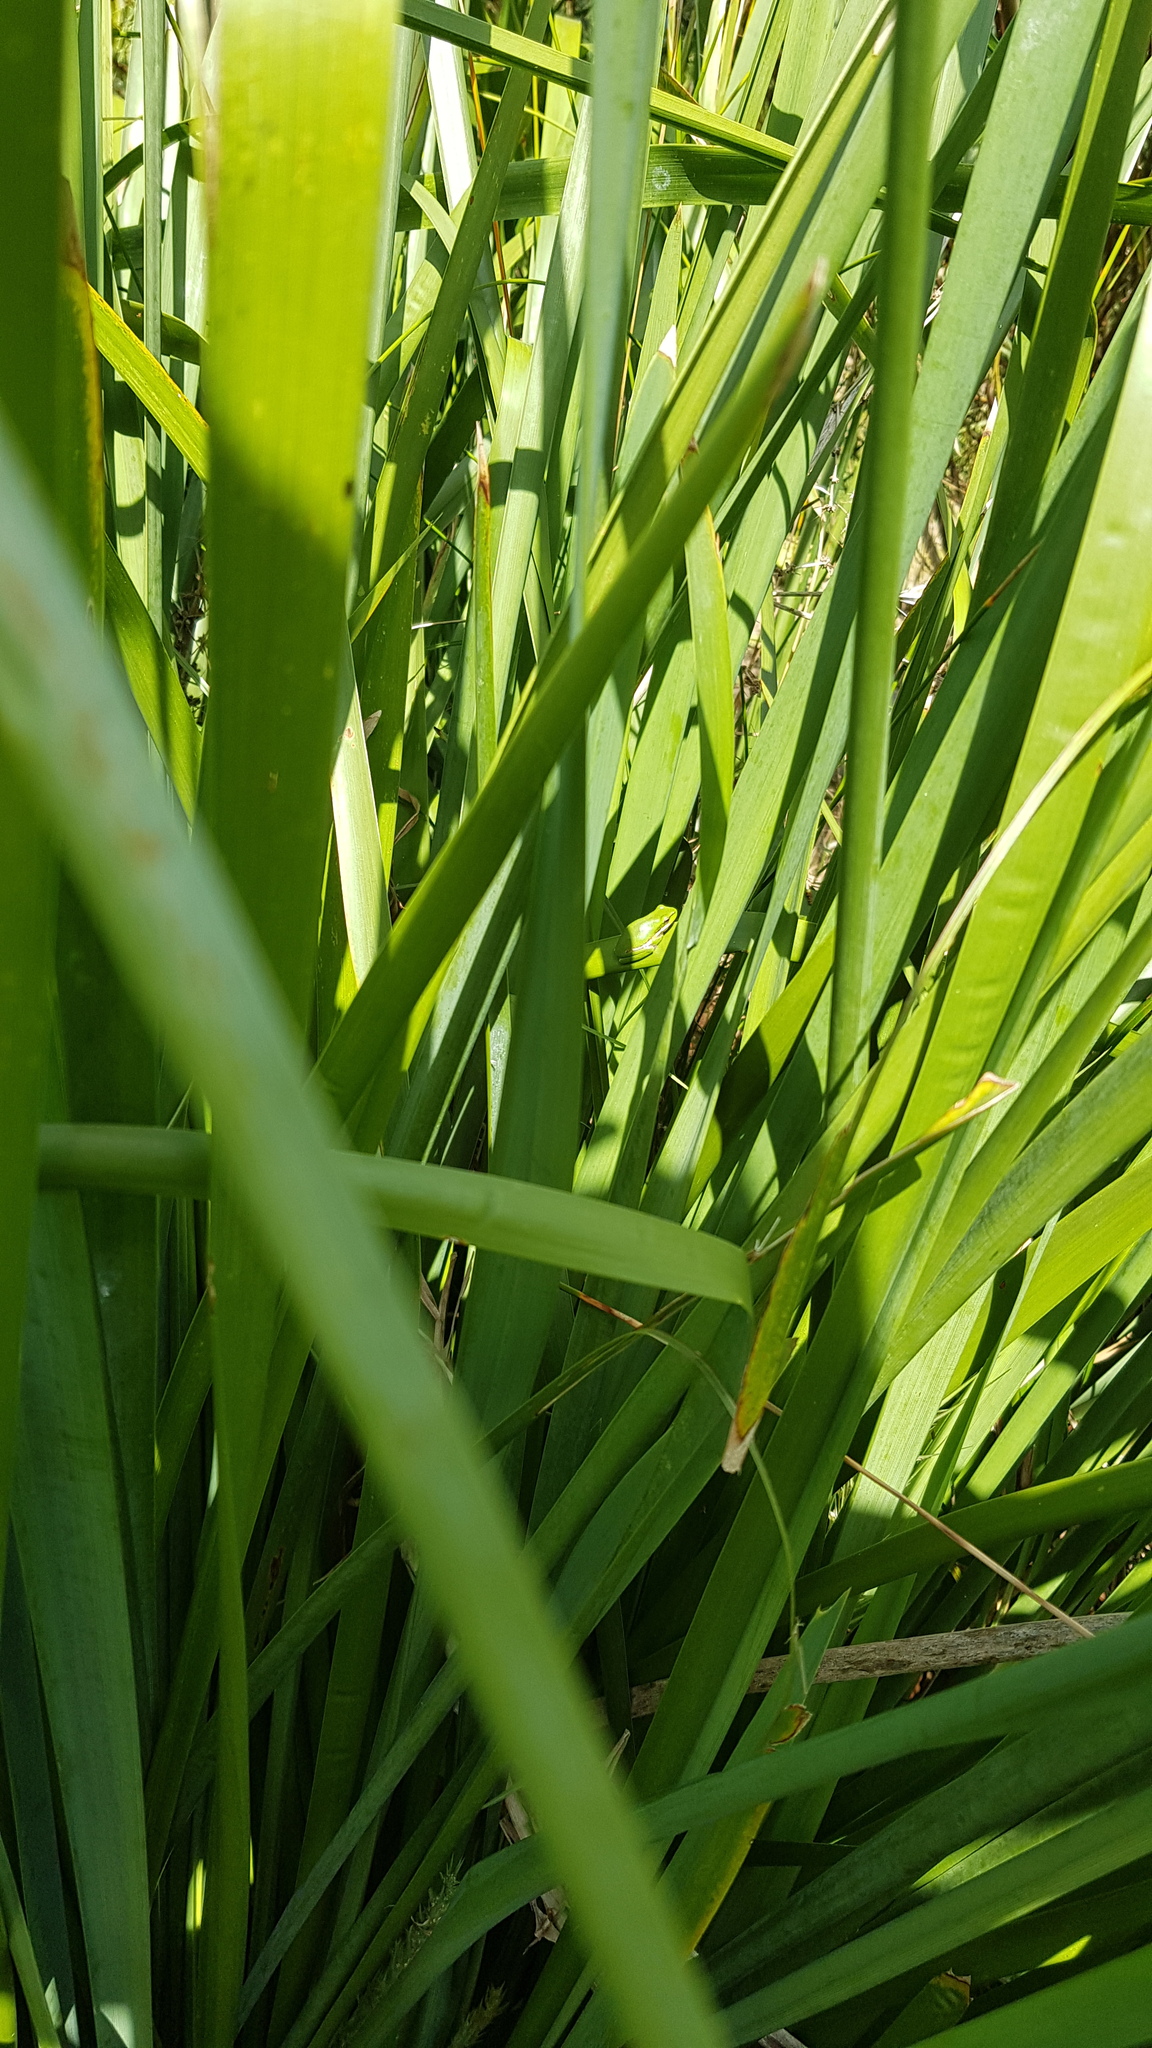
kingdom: Animalia
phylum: Chordata
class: Amphibia
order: Anura
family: Pelodryadidae
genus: Litoria
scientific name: Litoria fallax
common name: Eastern dwarf treefrog
